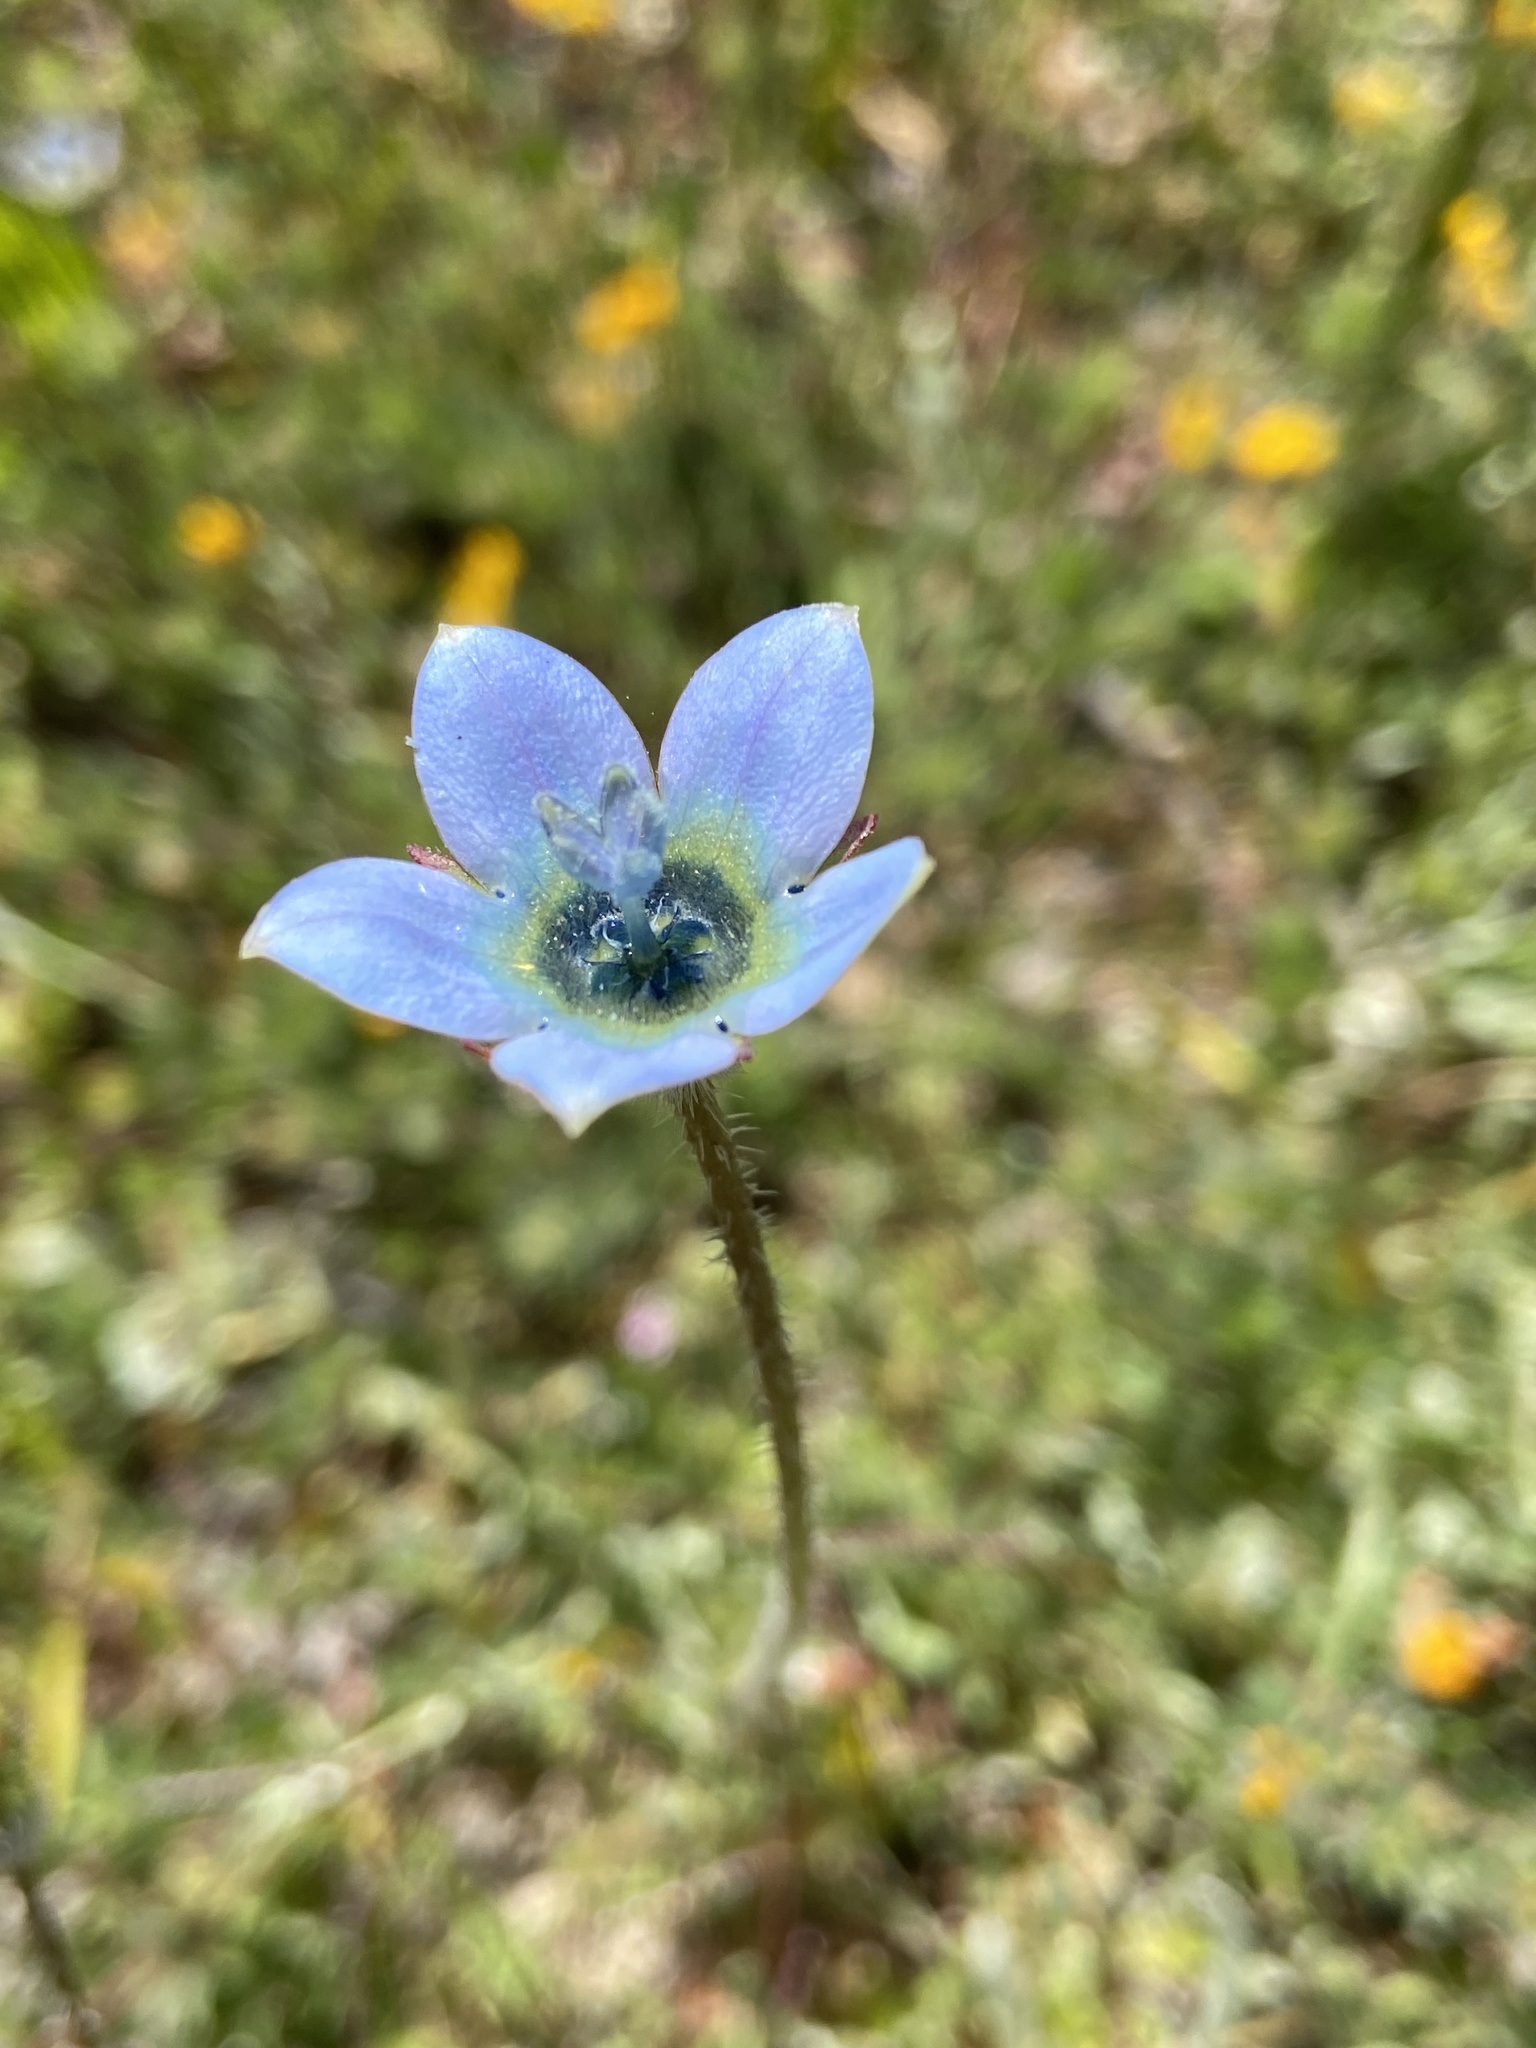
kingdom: Plantae
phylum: Tracheophyta
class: Magnoliopsida
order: Asterales
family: Campanulaceae
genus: Wahlenbergia
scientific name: Wahlenbergia capensis
